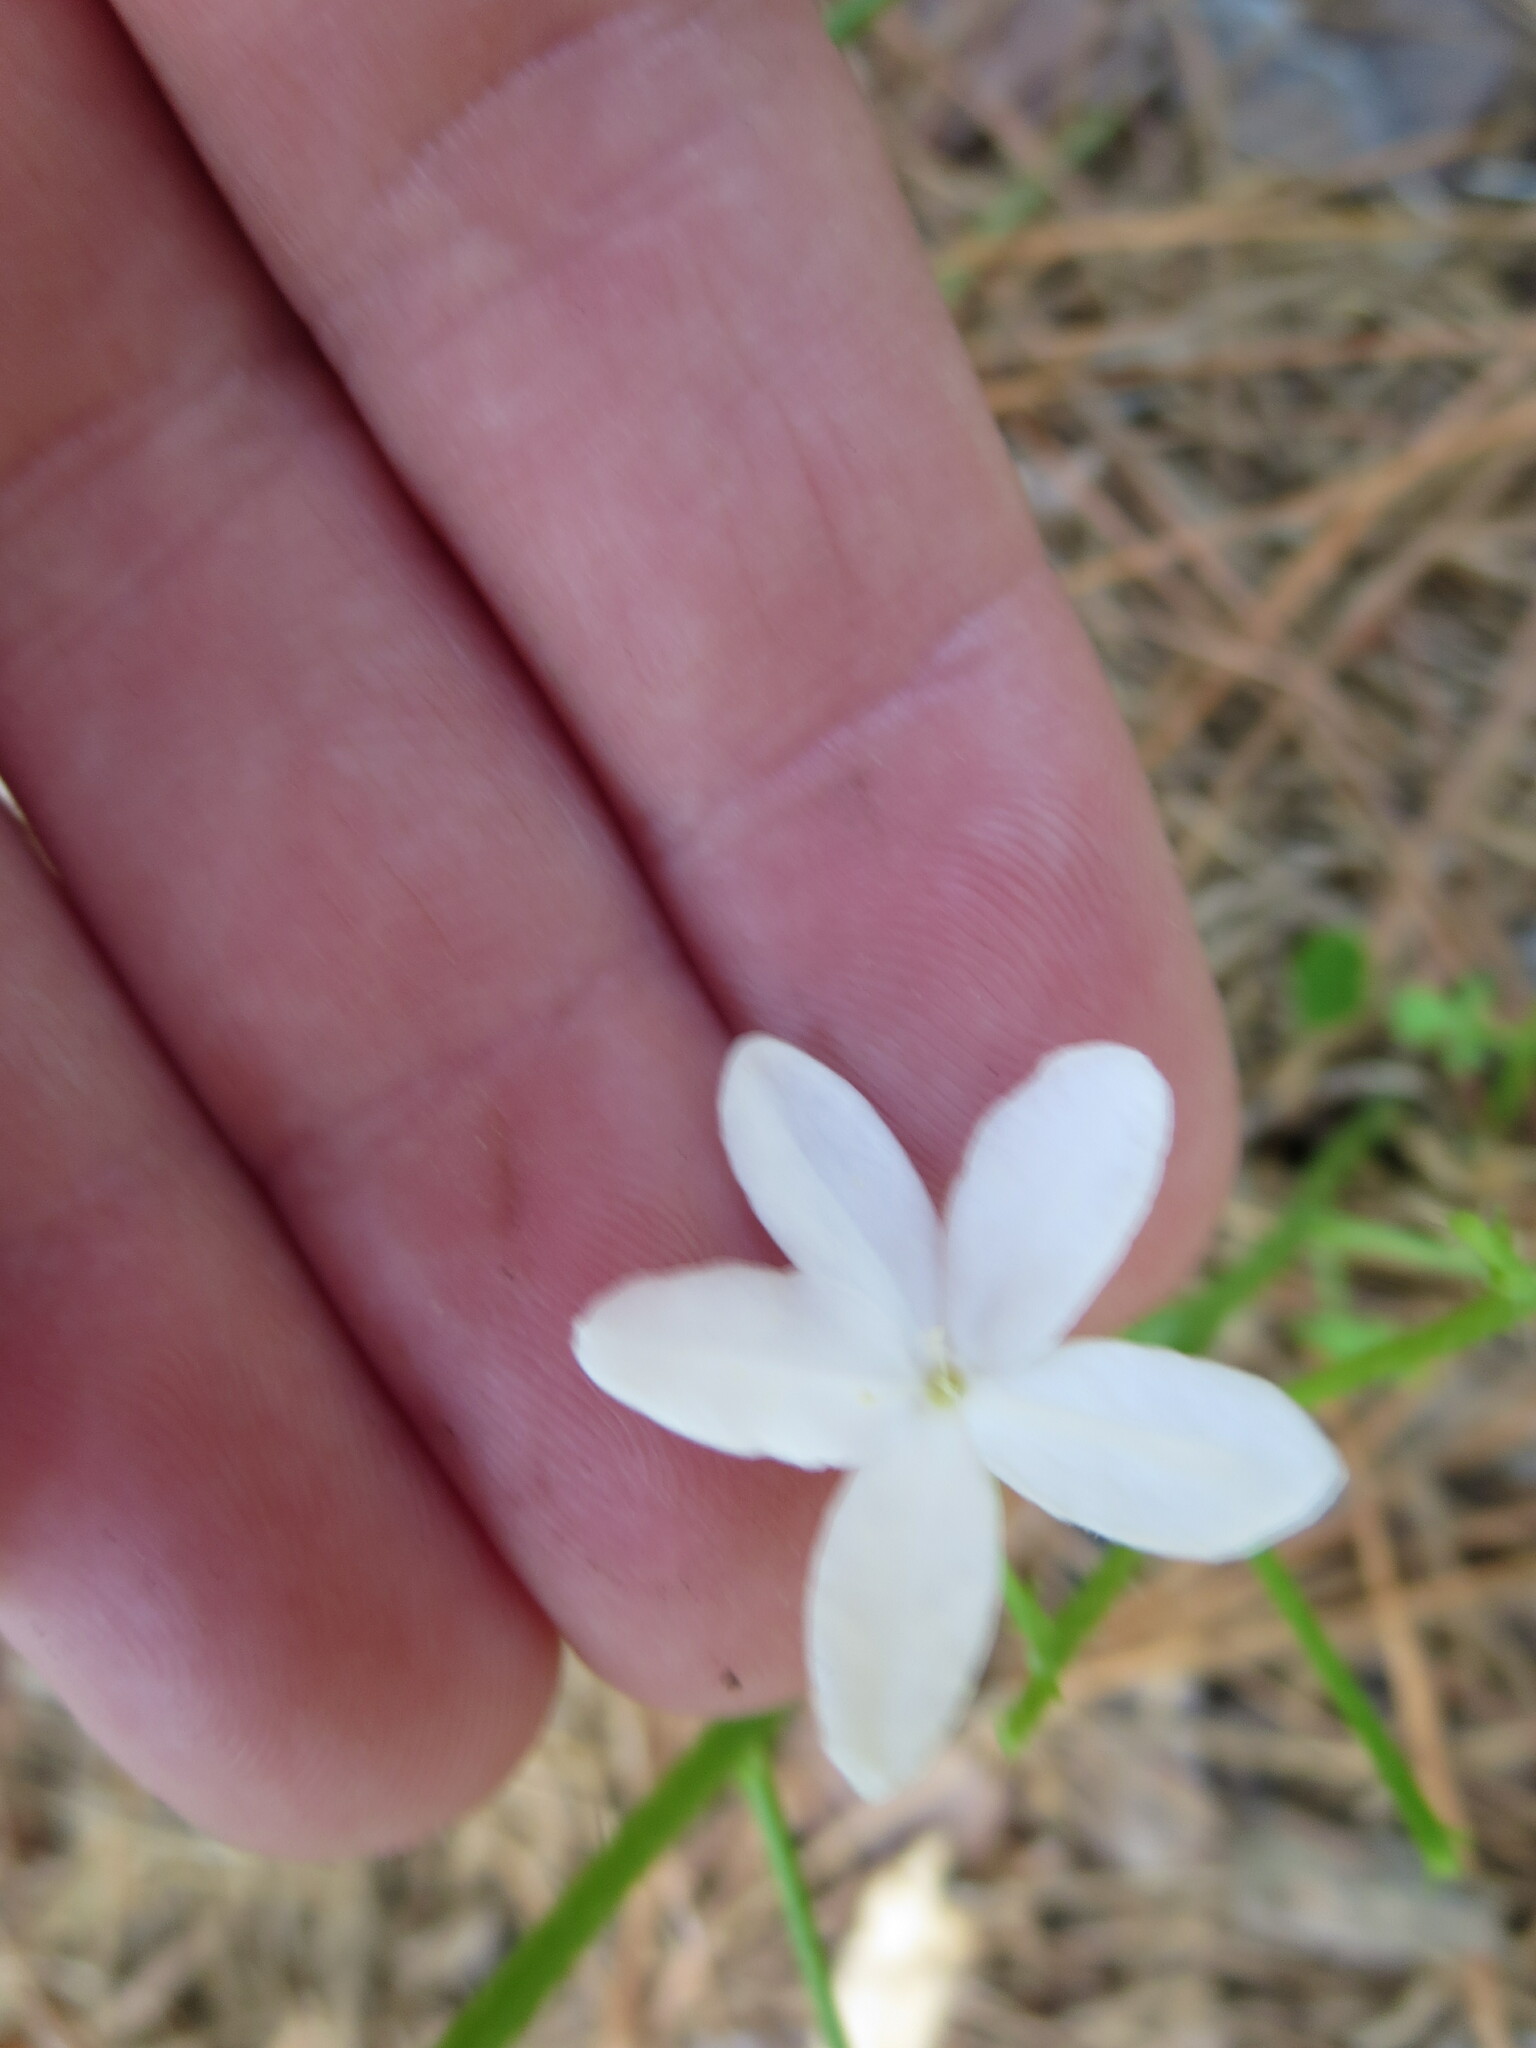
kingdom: Plantae
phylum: Tracheophyta
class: Magnoliopsida
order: Malpighiales
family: Euphorbiaceae
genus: Cnidoscolus
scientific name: Cnidoscolus stimulosus
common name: Bull-nettle
